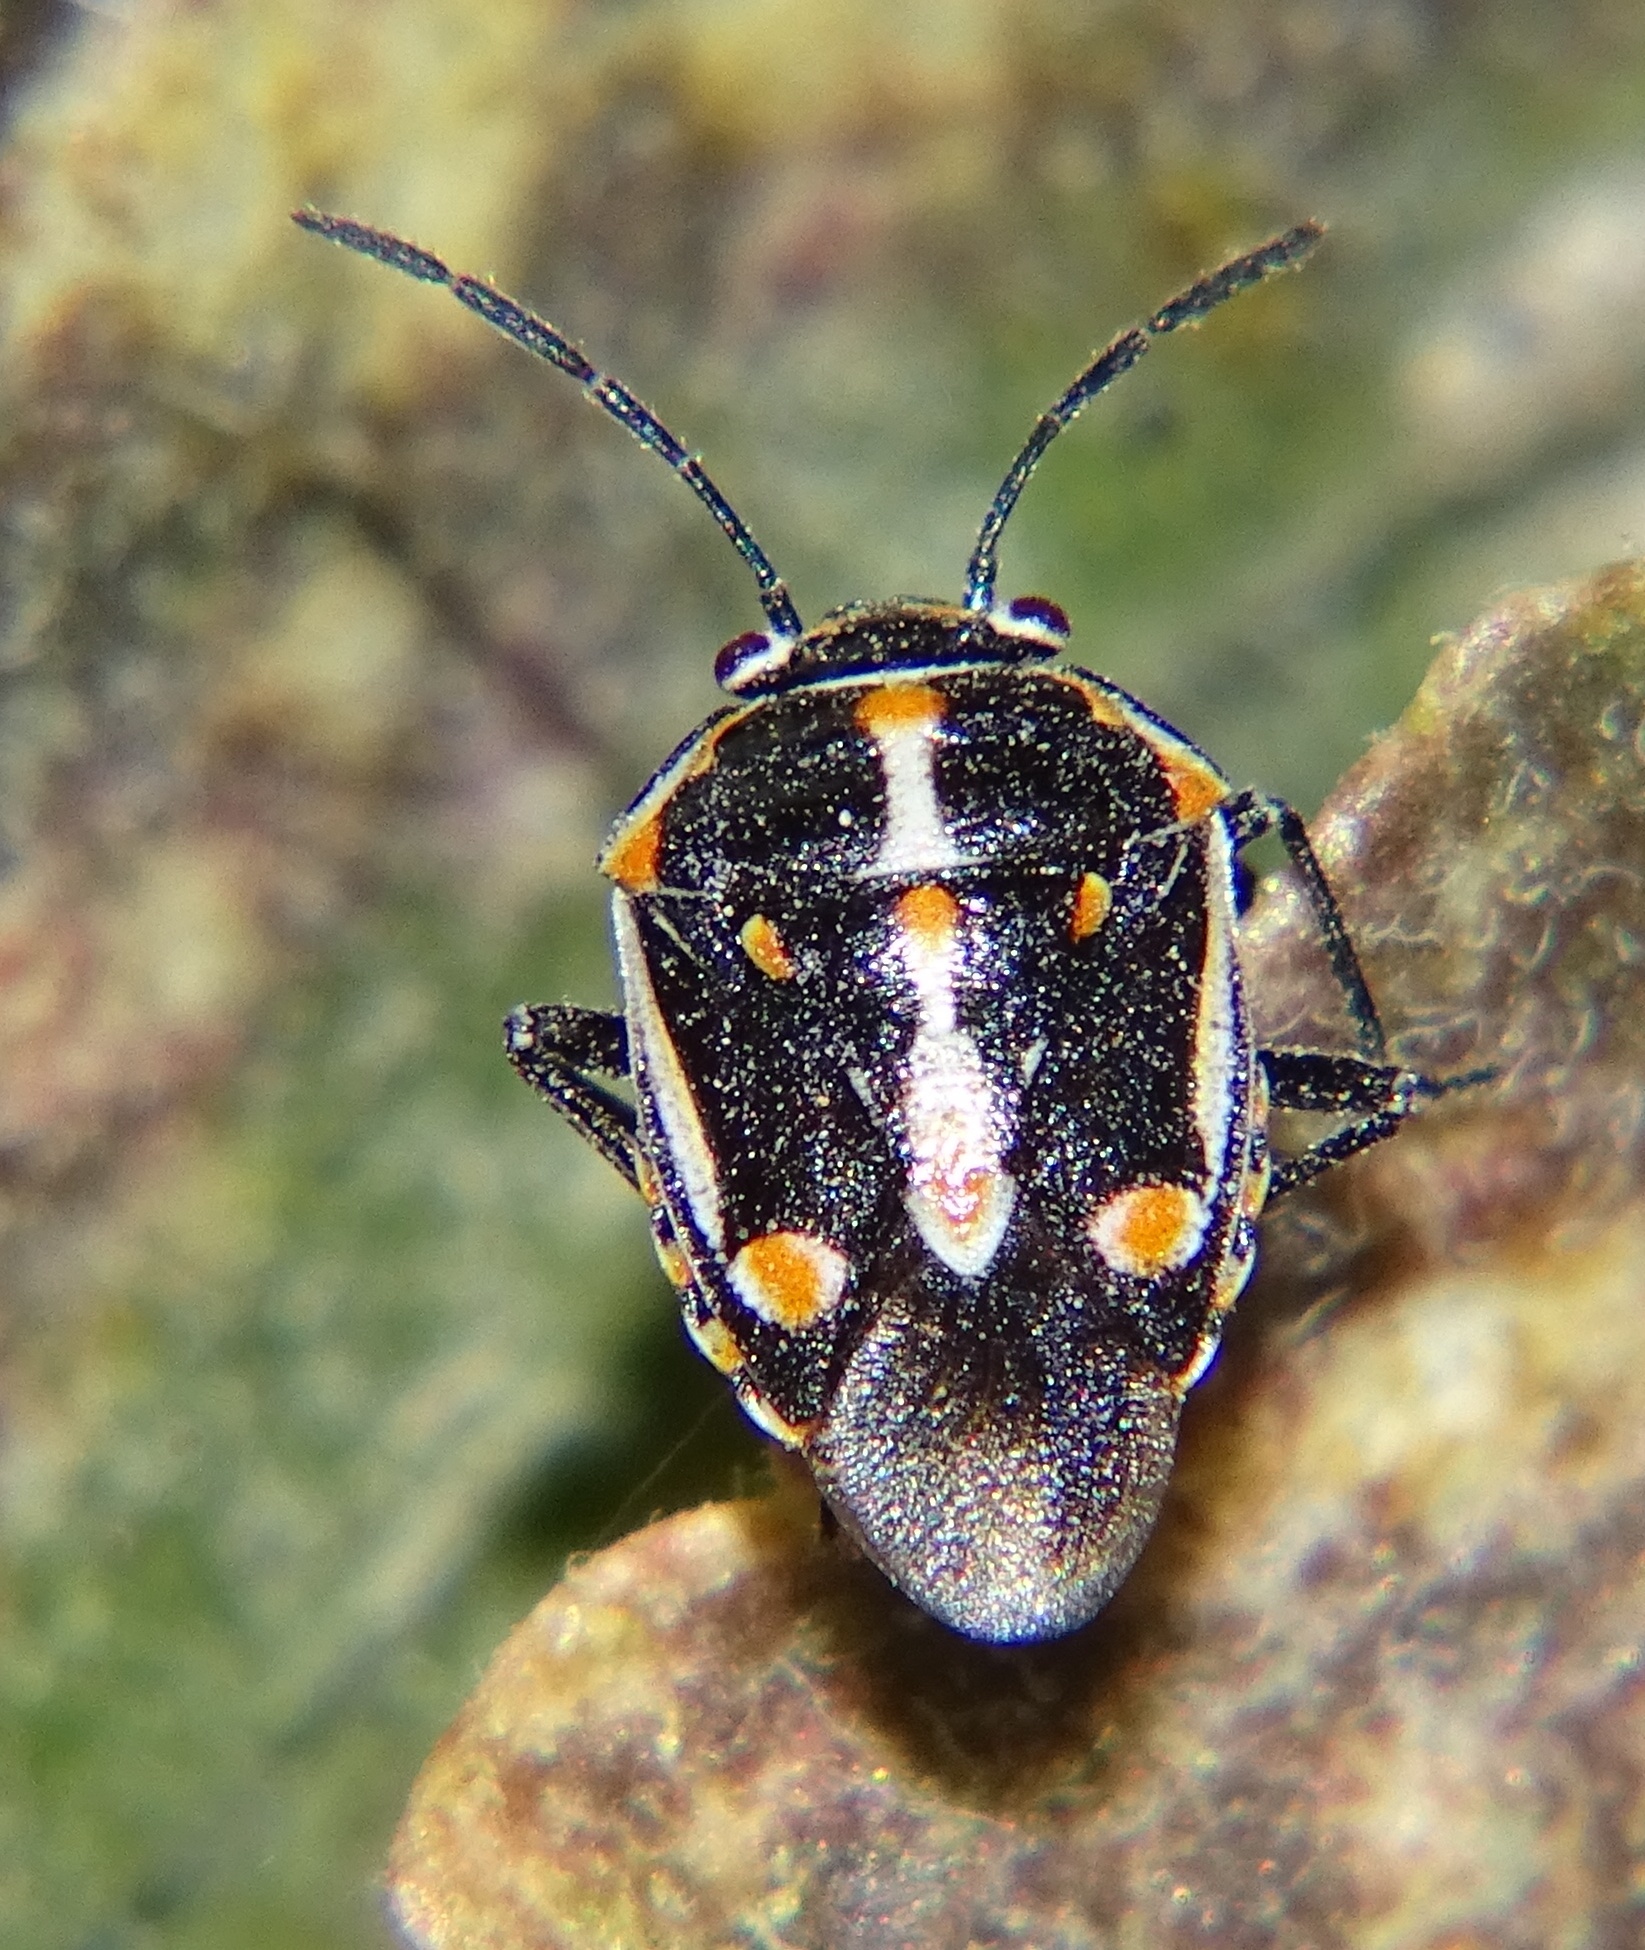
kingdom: Animalia
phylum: Arthropoda
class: Insecta
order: Hemiptera
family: Pentatomidae
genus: Bagrada
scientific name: Bagrada hilaris
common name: Bagrada bug
